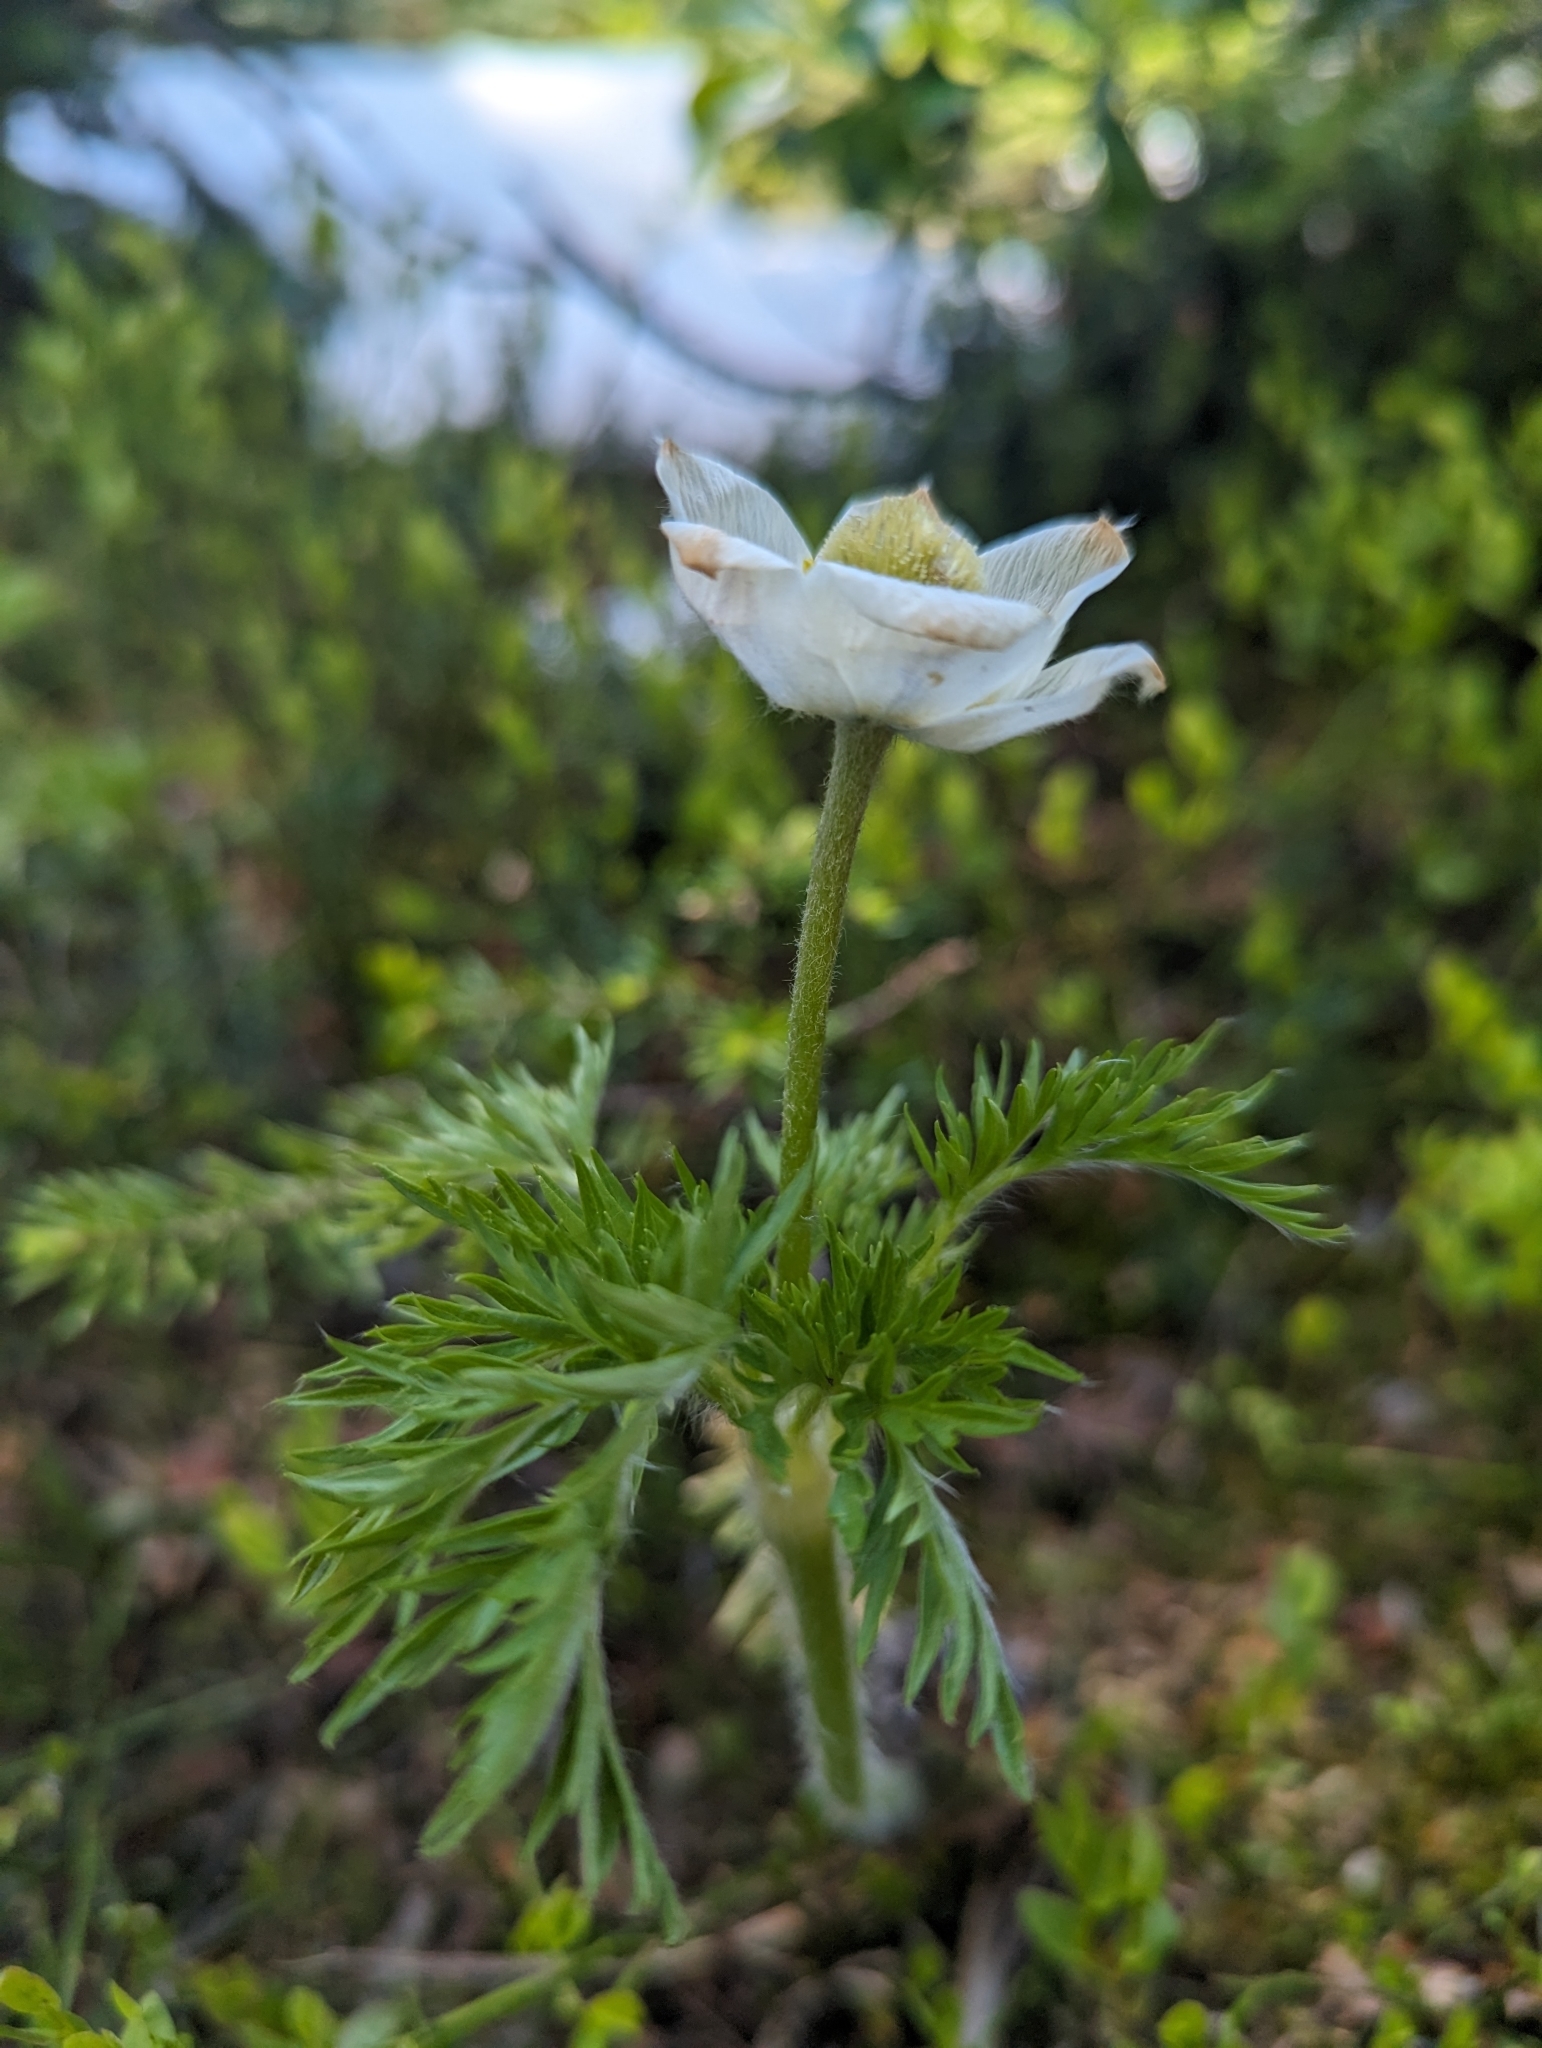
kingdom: Plantae
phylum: Tracheophyta
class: Magnoliopsida
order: Ranunculales
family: Ranunculaceae
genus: Pulsatilla
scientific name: Pulsatilla occidentalis
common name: Mountain pasqueflower
